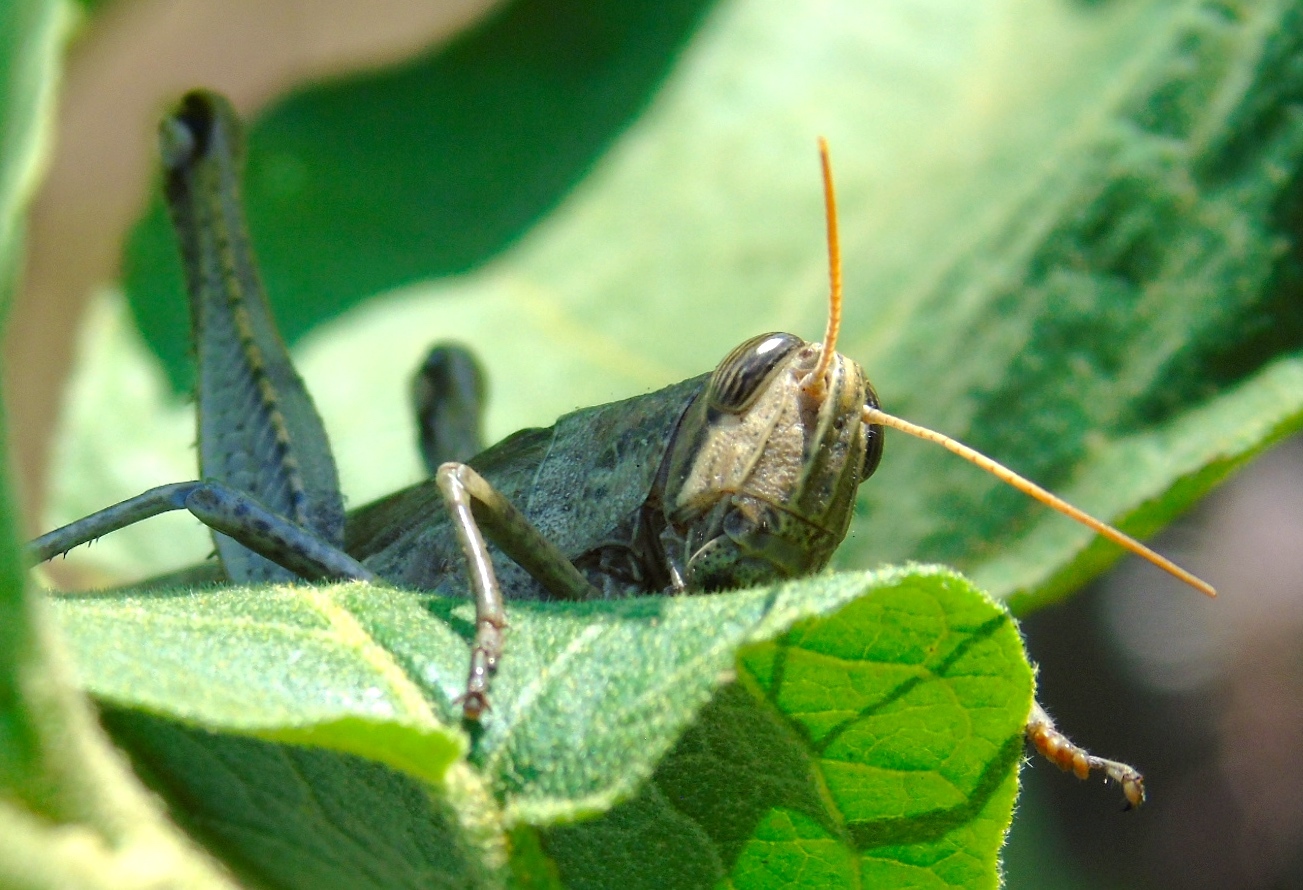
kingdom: Animalia
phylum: Arthropoda
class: Insecta
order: Orthoptera
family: Acrididae
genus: Schistocerca
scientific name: Schistocerca
